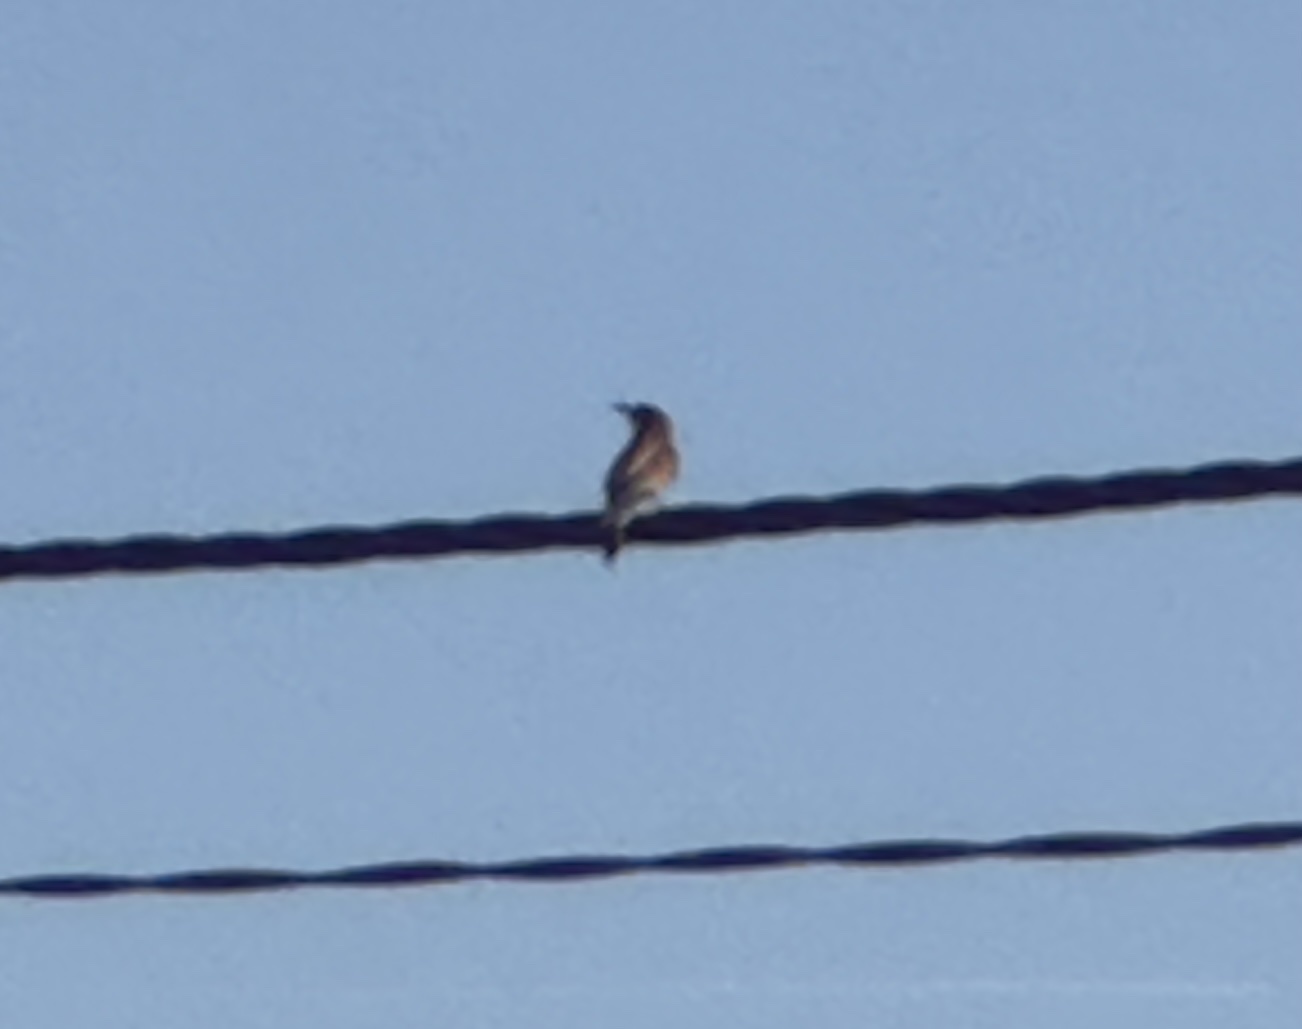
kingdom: Animalia
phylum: Chordata
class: Aves
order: Coraciiformes
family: Meropidae
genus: Merops
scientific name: Merops apiaster
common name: European bee-eater
